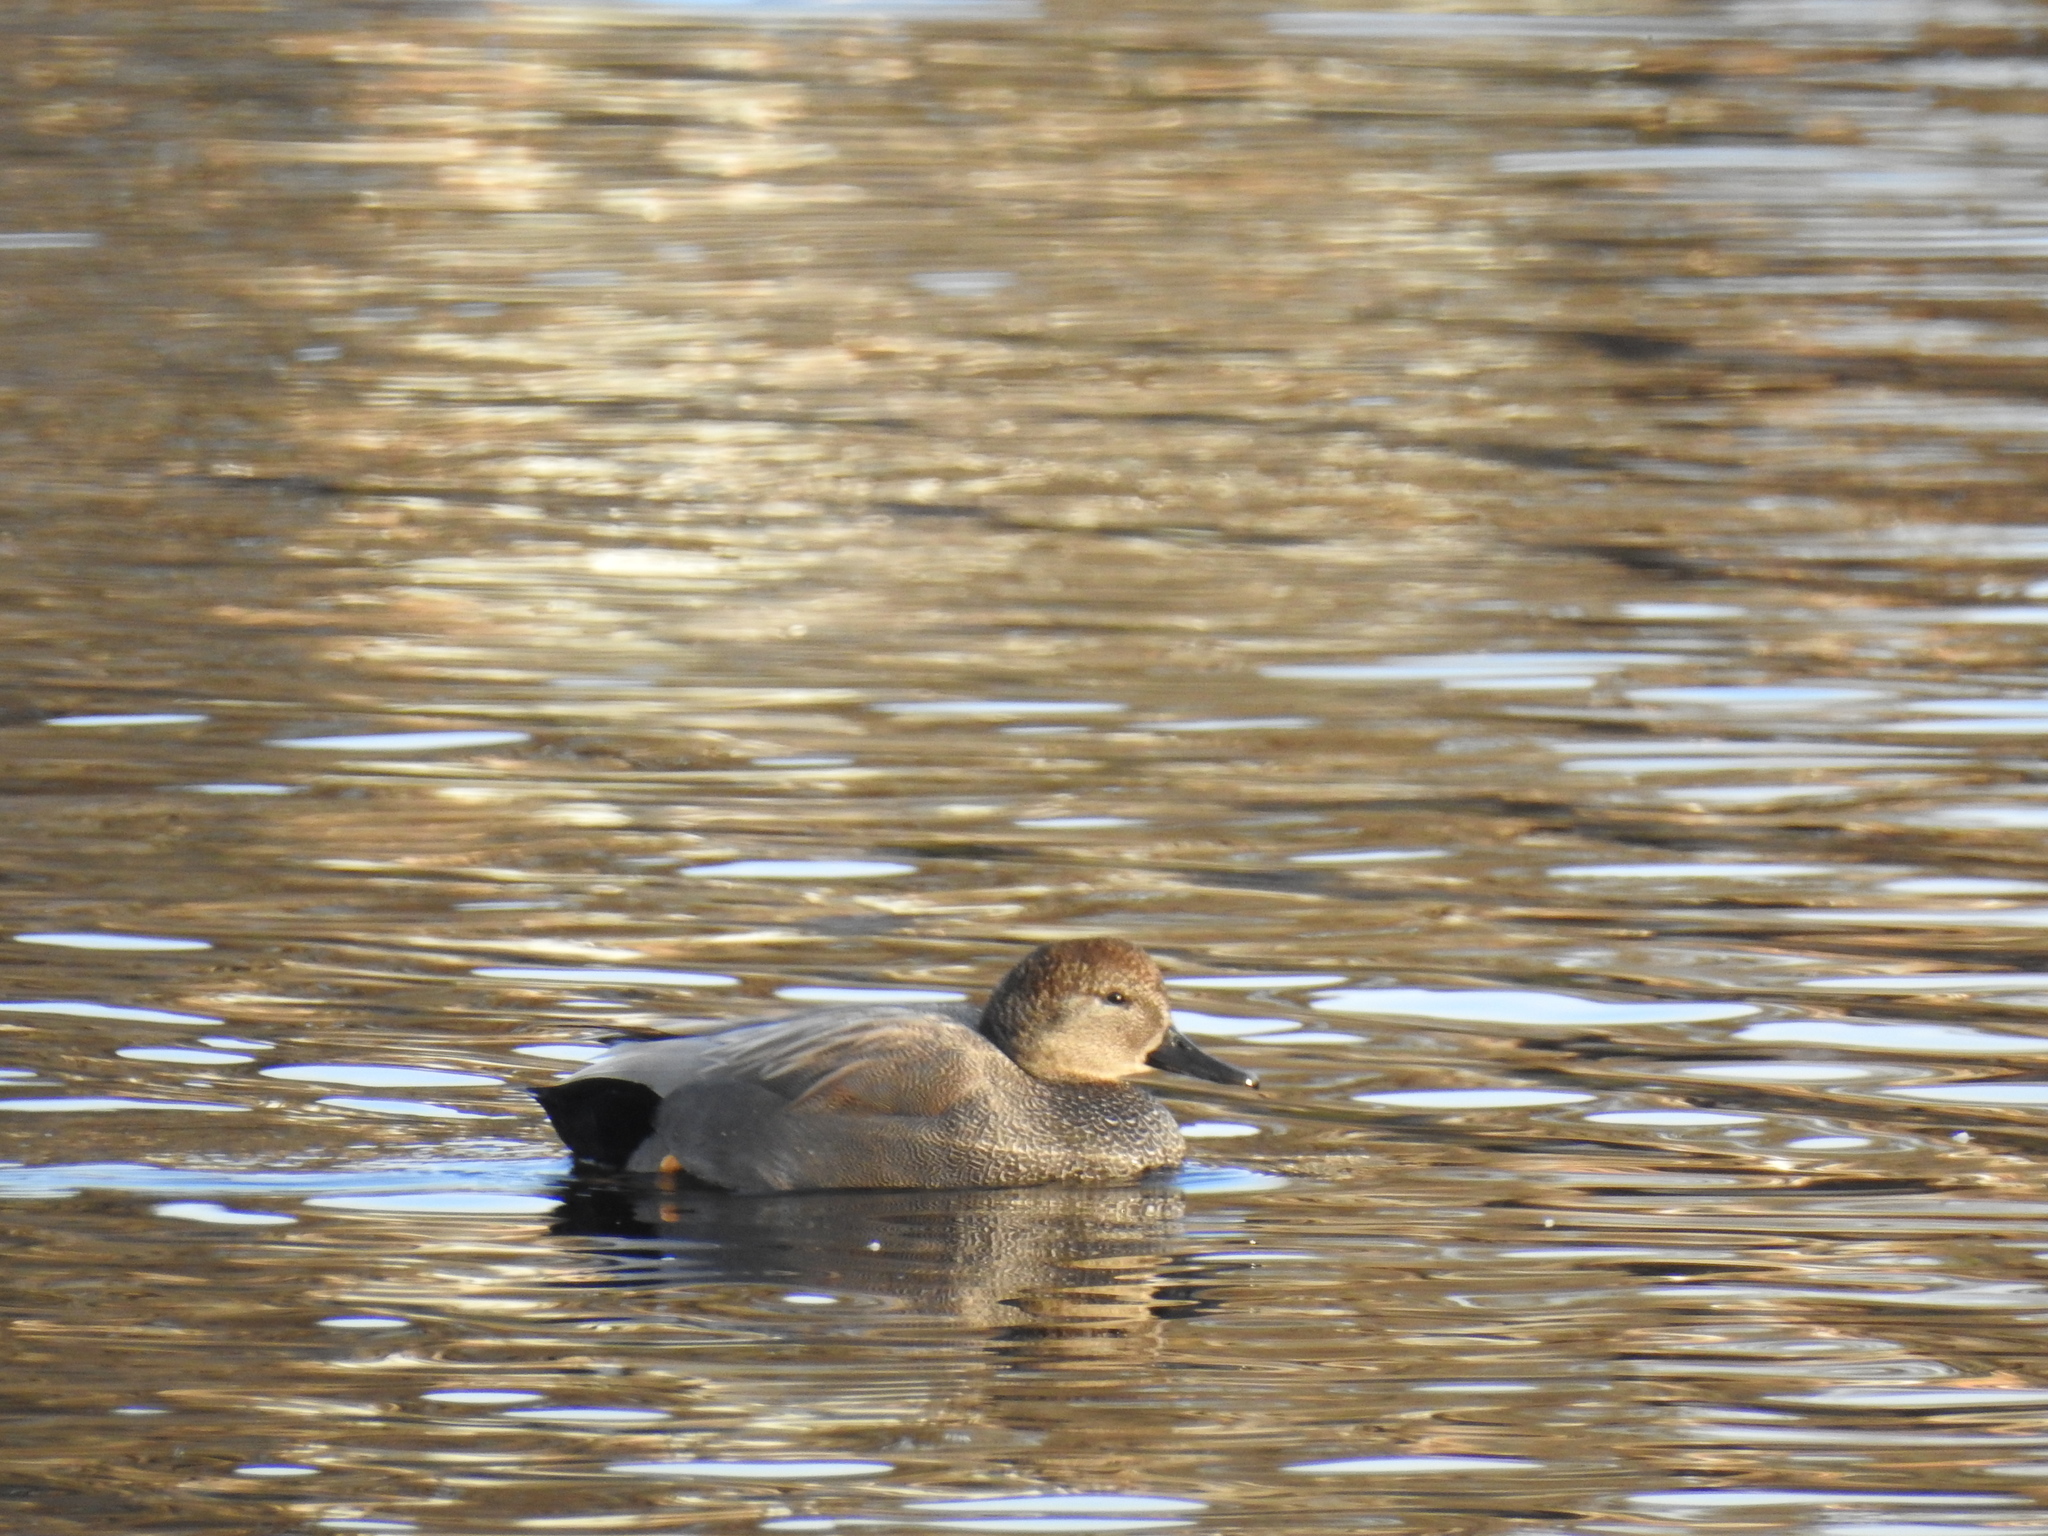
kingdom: Animalia
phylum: Chordata
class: Aves
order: Anseriformes
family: Anatidae
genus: Mareca
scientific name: Mareca strepera
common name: Gadwall
